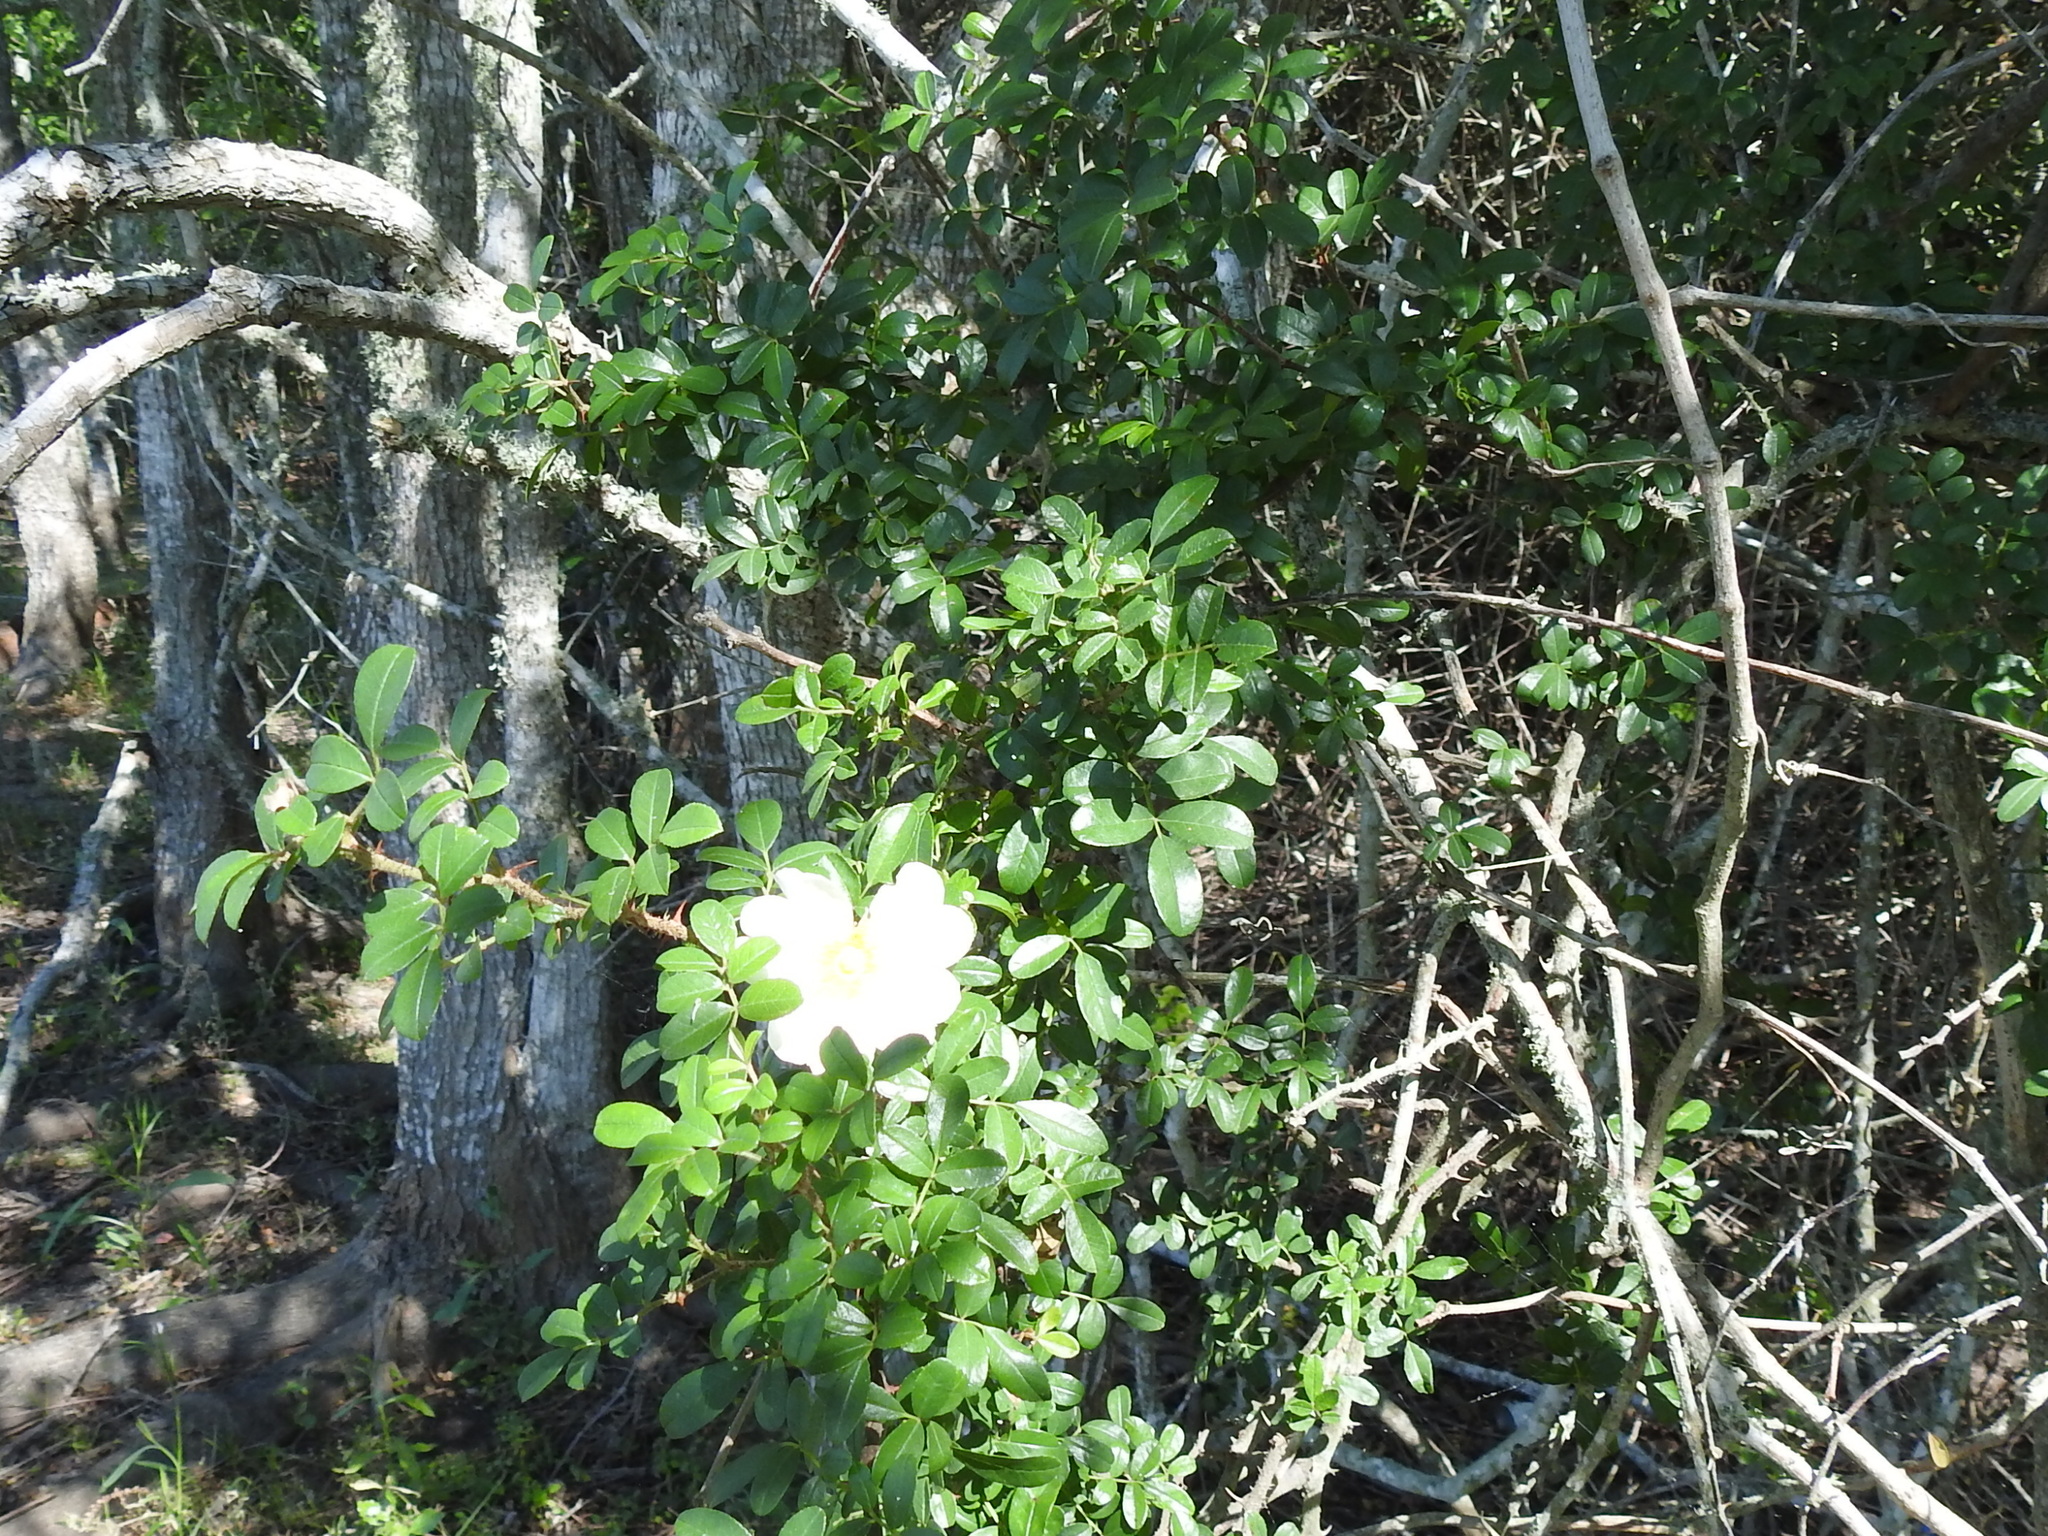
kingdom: Plantae
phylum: Tracheophyta
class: Magnoliopsida
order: Rosales
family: Rosaceae
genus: Rosa
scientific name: Rosa bracteata
